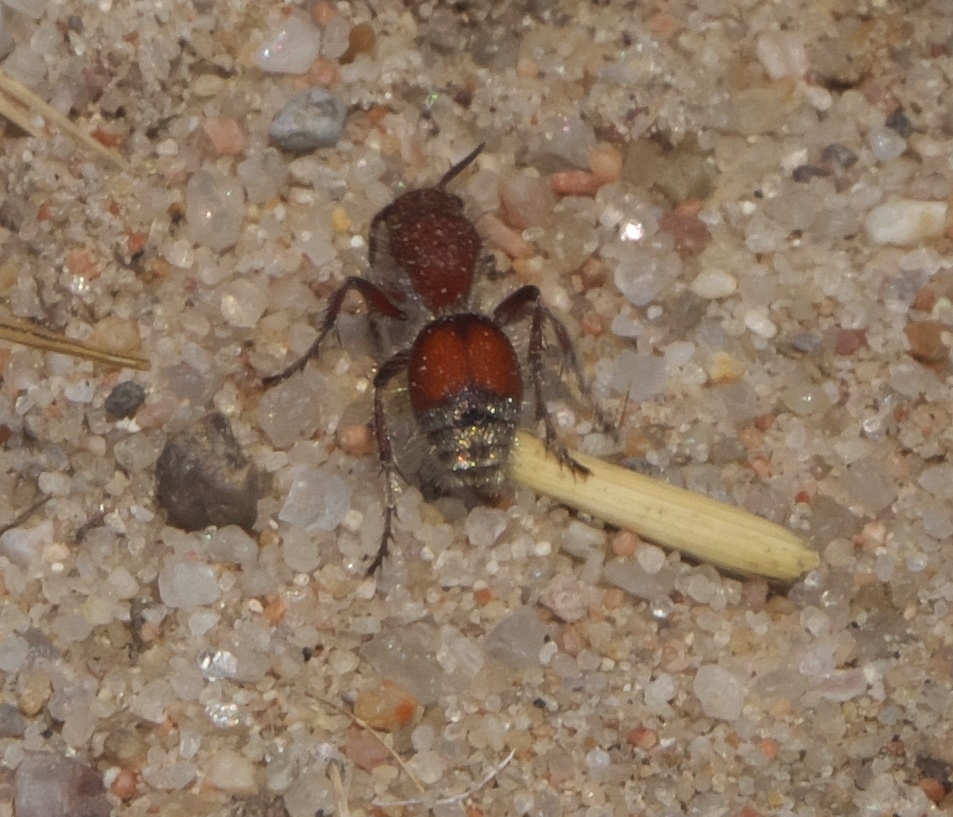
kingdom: Animalia
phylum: Arthropoda
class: Insecta
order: Hymenoptera
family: Mutillidae
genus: Dasymutilla
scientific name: Dasymutilla
